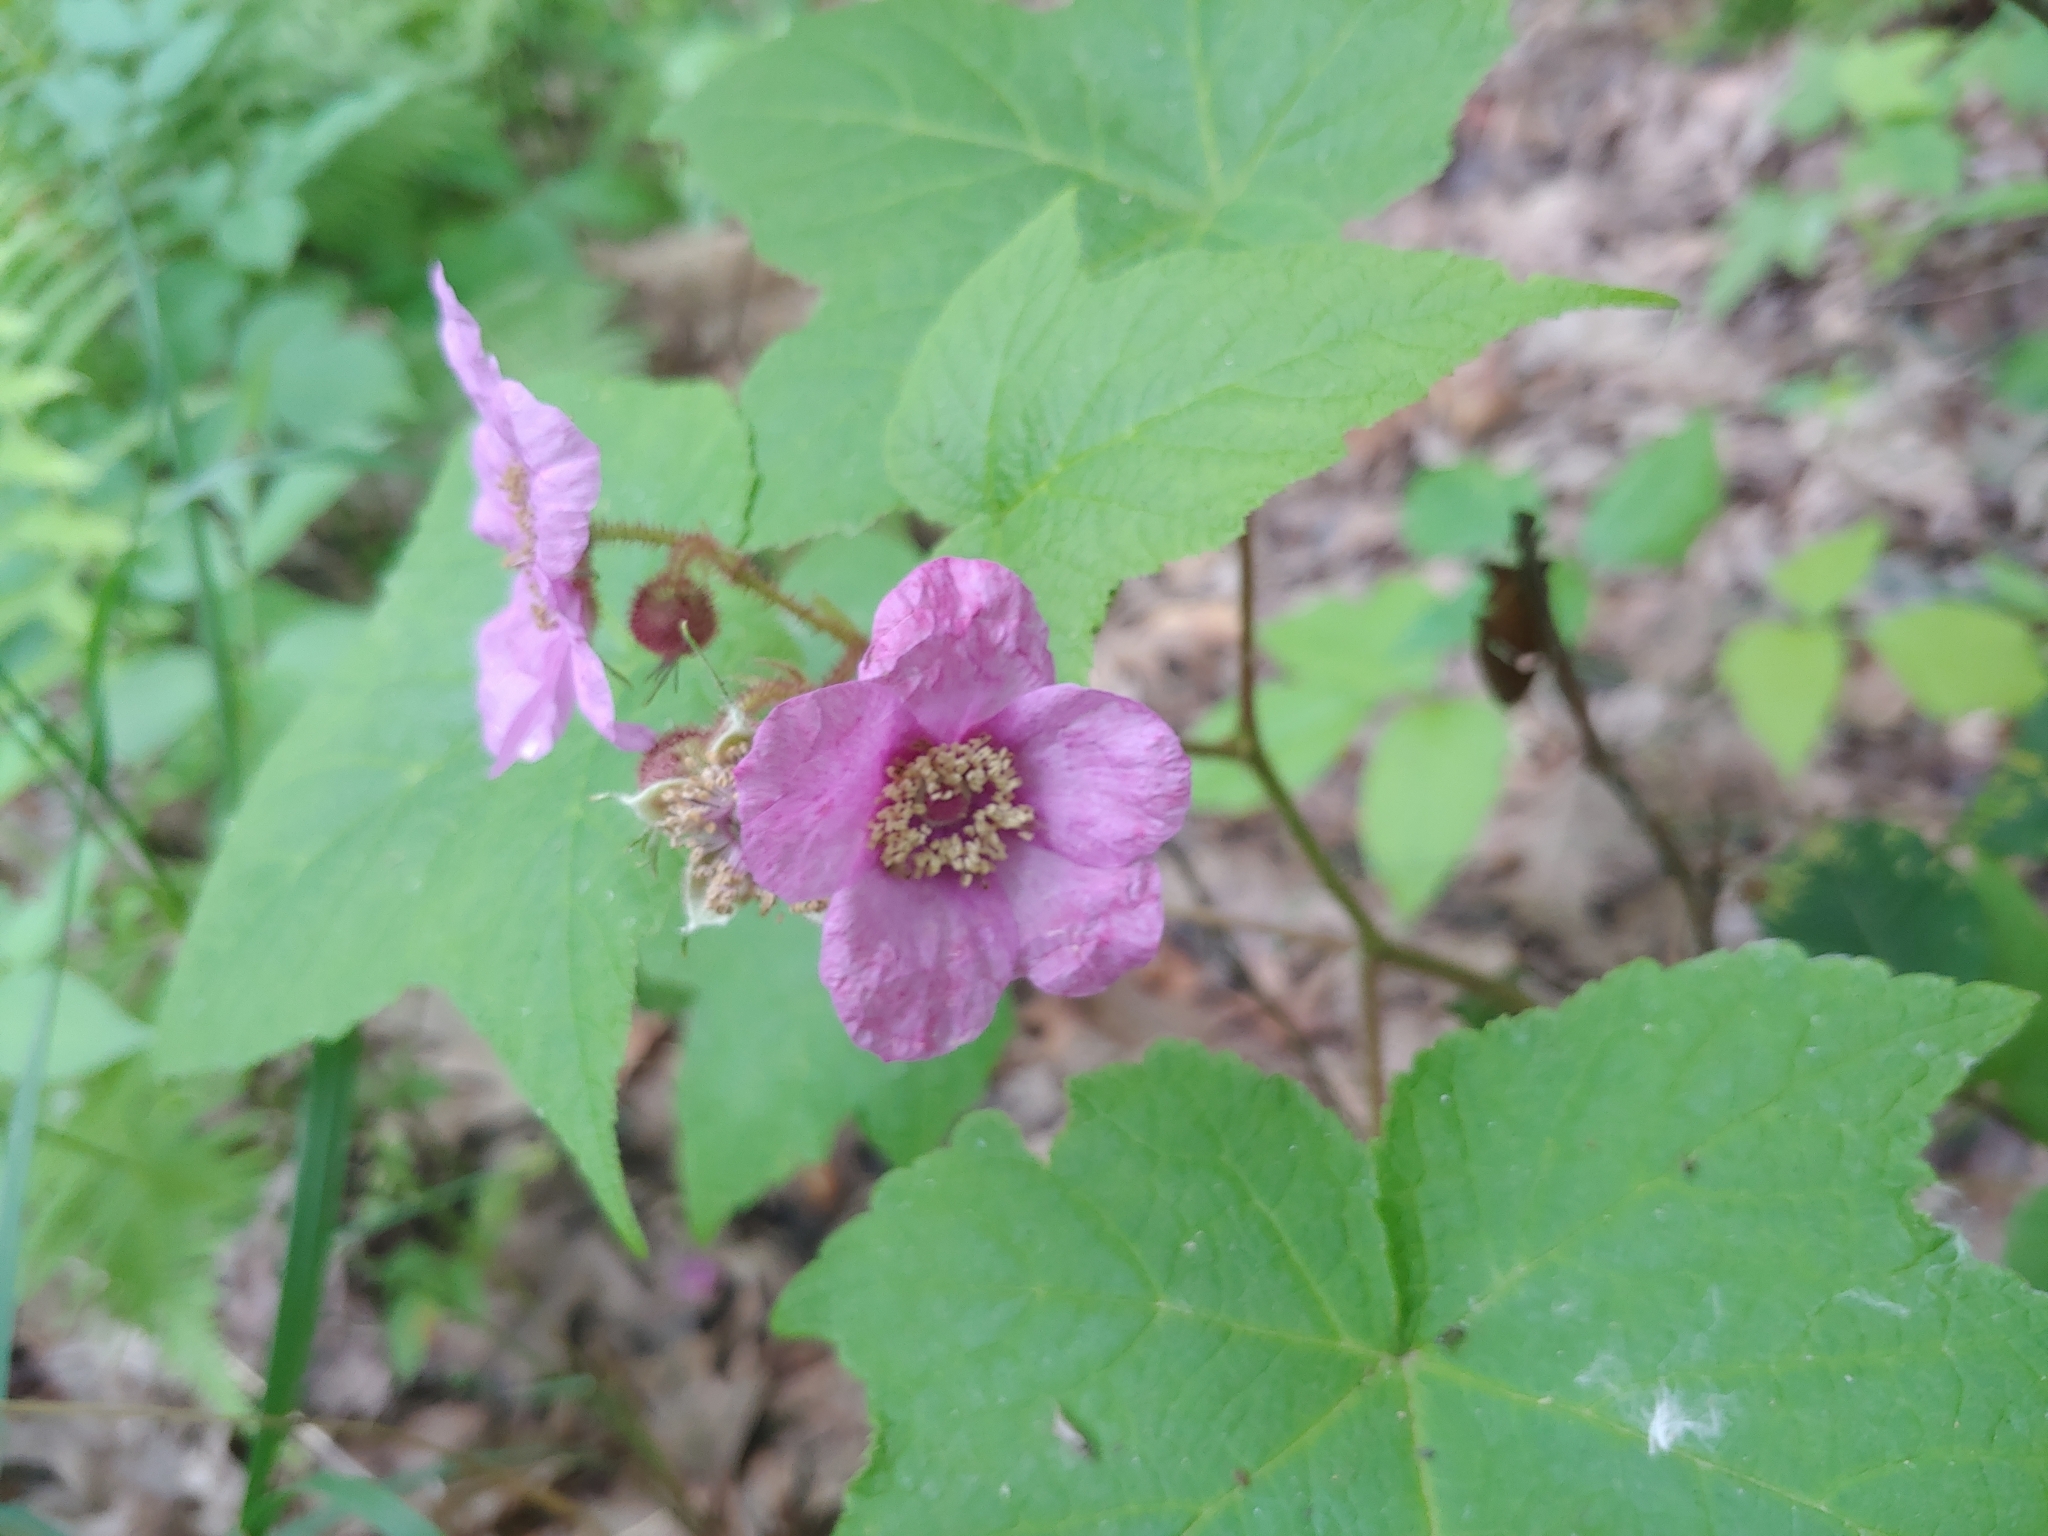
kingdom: Plantae
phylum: Tracheophyta
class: Magnoliopsida
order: Rosales
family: Rosaceae
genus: Rubus
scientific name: Rubus odoratus
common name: Purple-flowered raspberry
